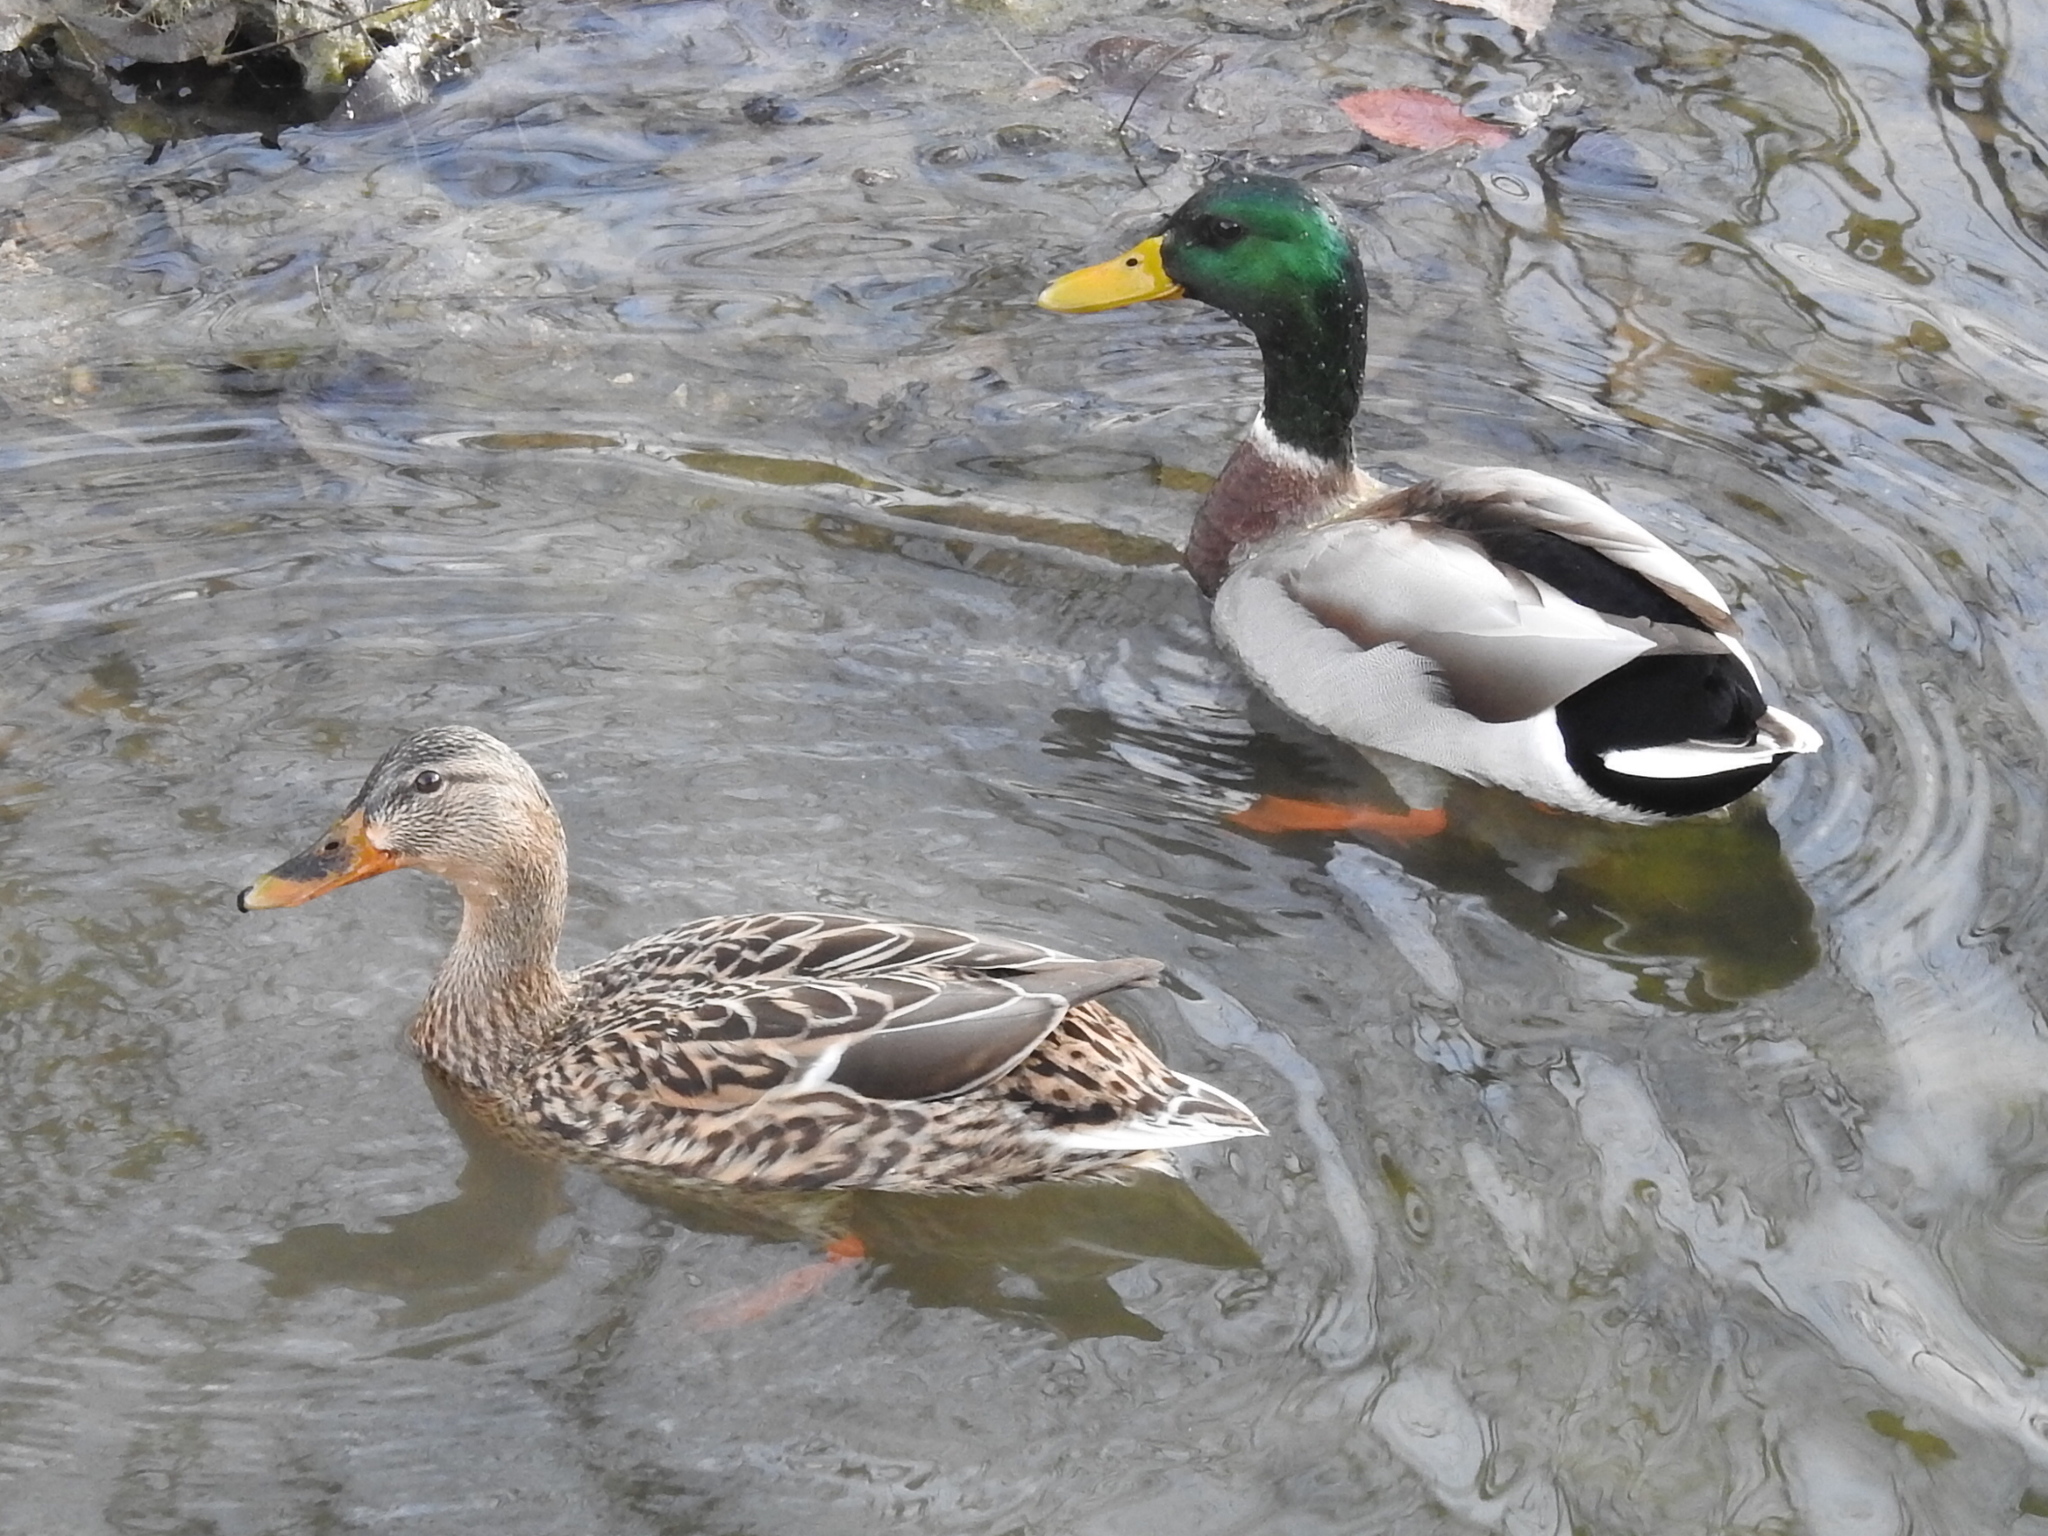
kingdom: Animalia
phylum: Chordata
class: Aves
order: Anseriformes
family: Anatidae
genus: Anas
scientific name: Anas platyrhynchos
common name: Mallard
